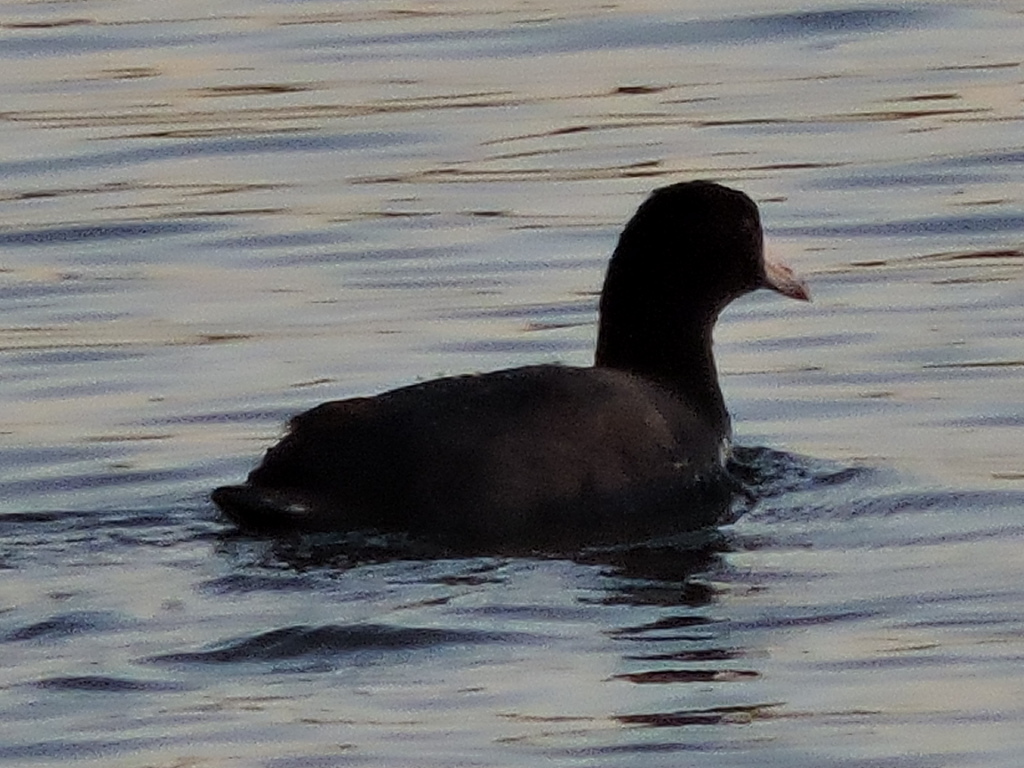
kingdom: Animalia
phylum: Chordata
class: Aves
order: Gruiformes
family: Rallidae
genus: Fulica
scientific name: Fulica americana
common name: American coot
